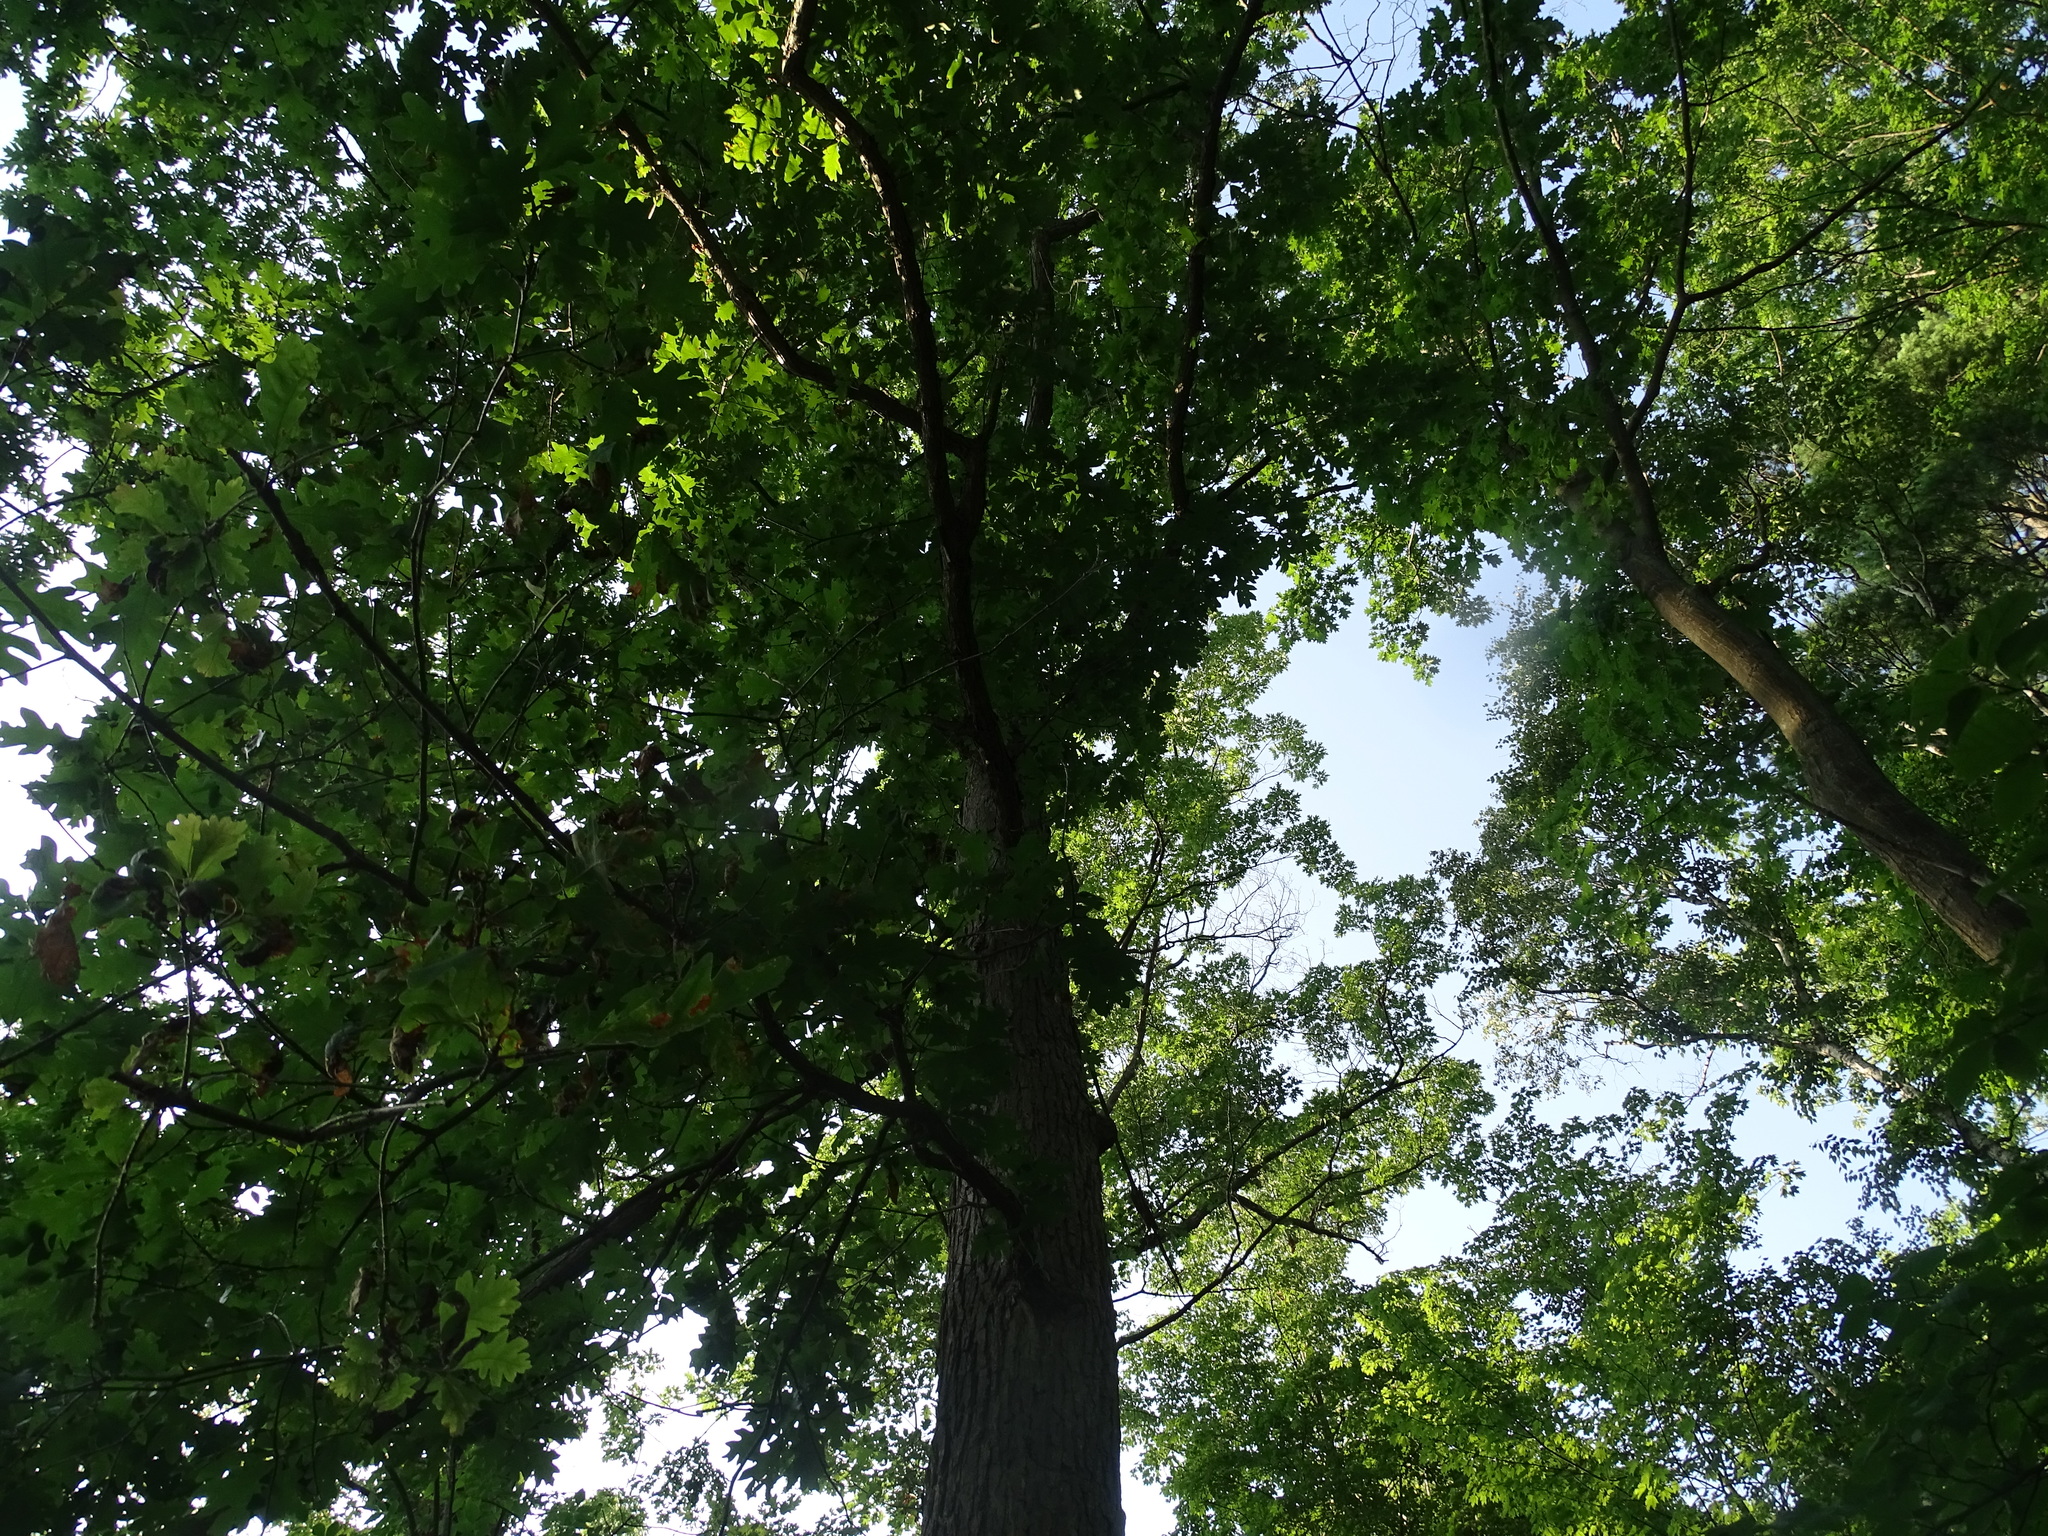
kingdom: Plantae
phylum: Tracheophyta
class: Magnoliopsida
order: Fagales
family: Fagaceae
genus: Quercus
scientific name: Quercus alba
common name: White oak
